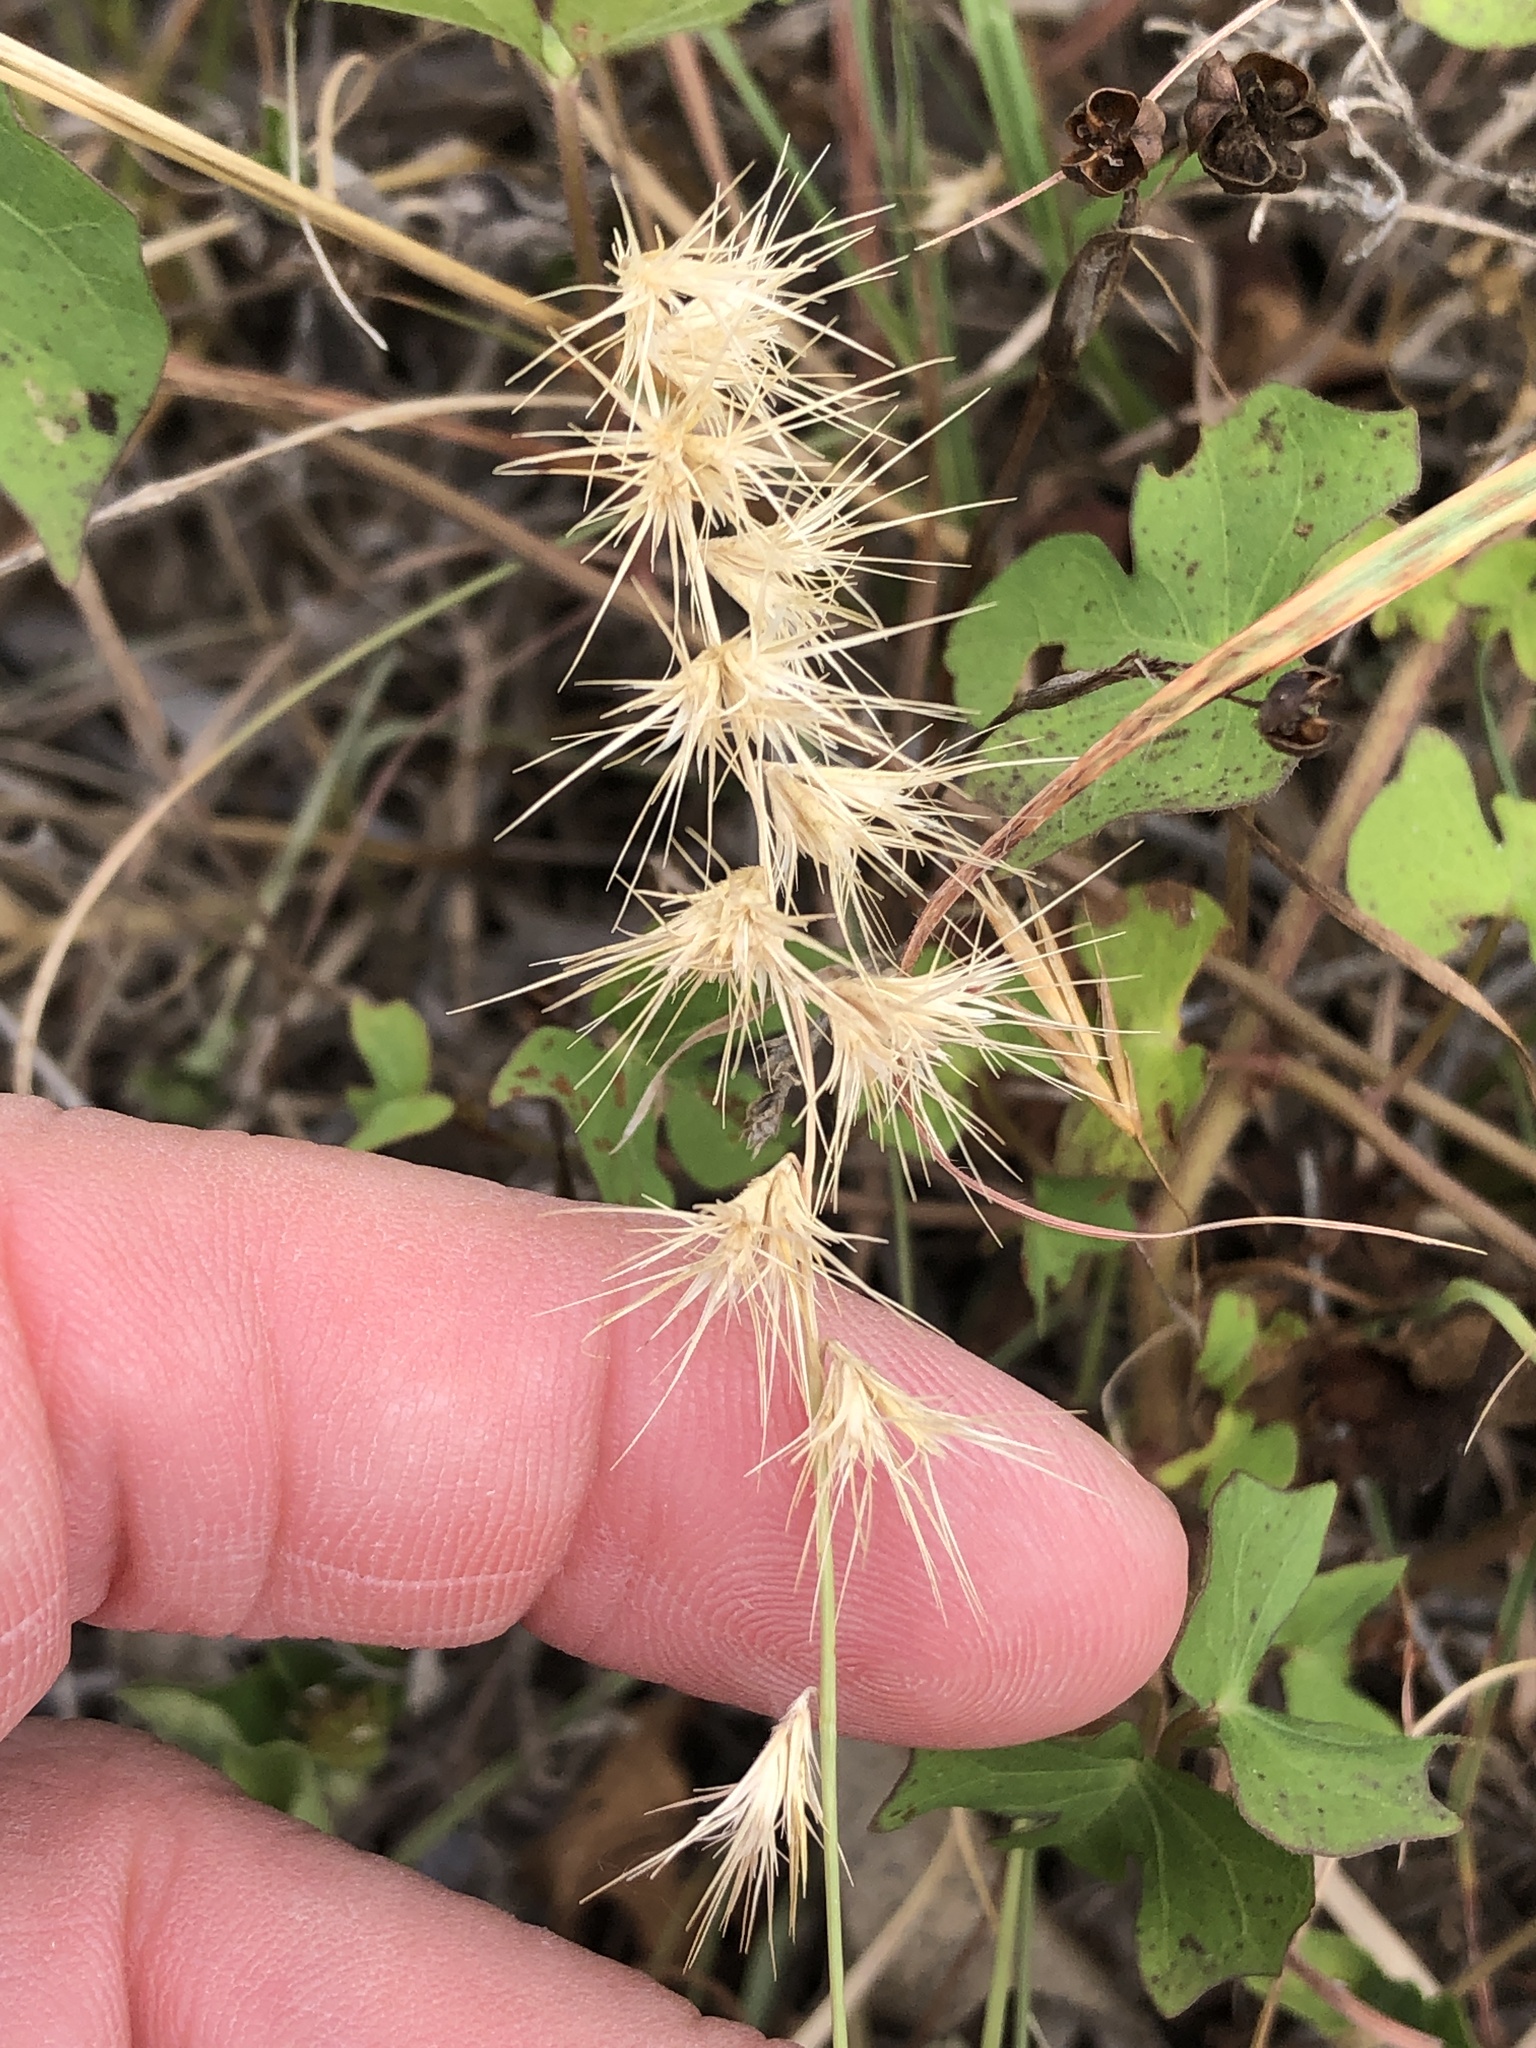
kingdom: Plantae
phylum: Tracheophyta
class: Liliopsida
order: Poales
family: Poaceae
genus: Bouteloua
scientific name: Bouteloua rigidiseta
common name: Texas grama
